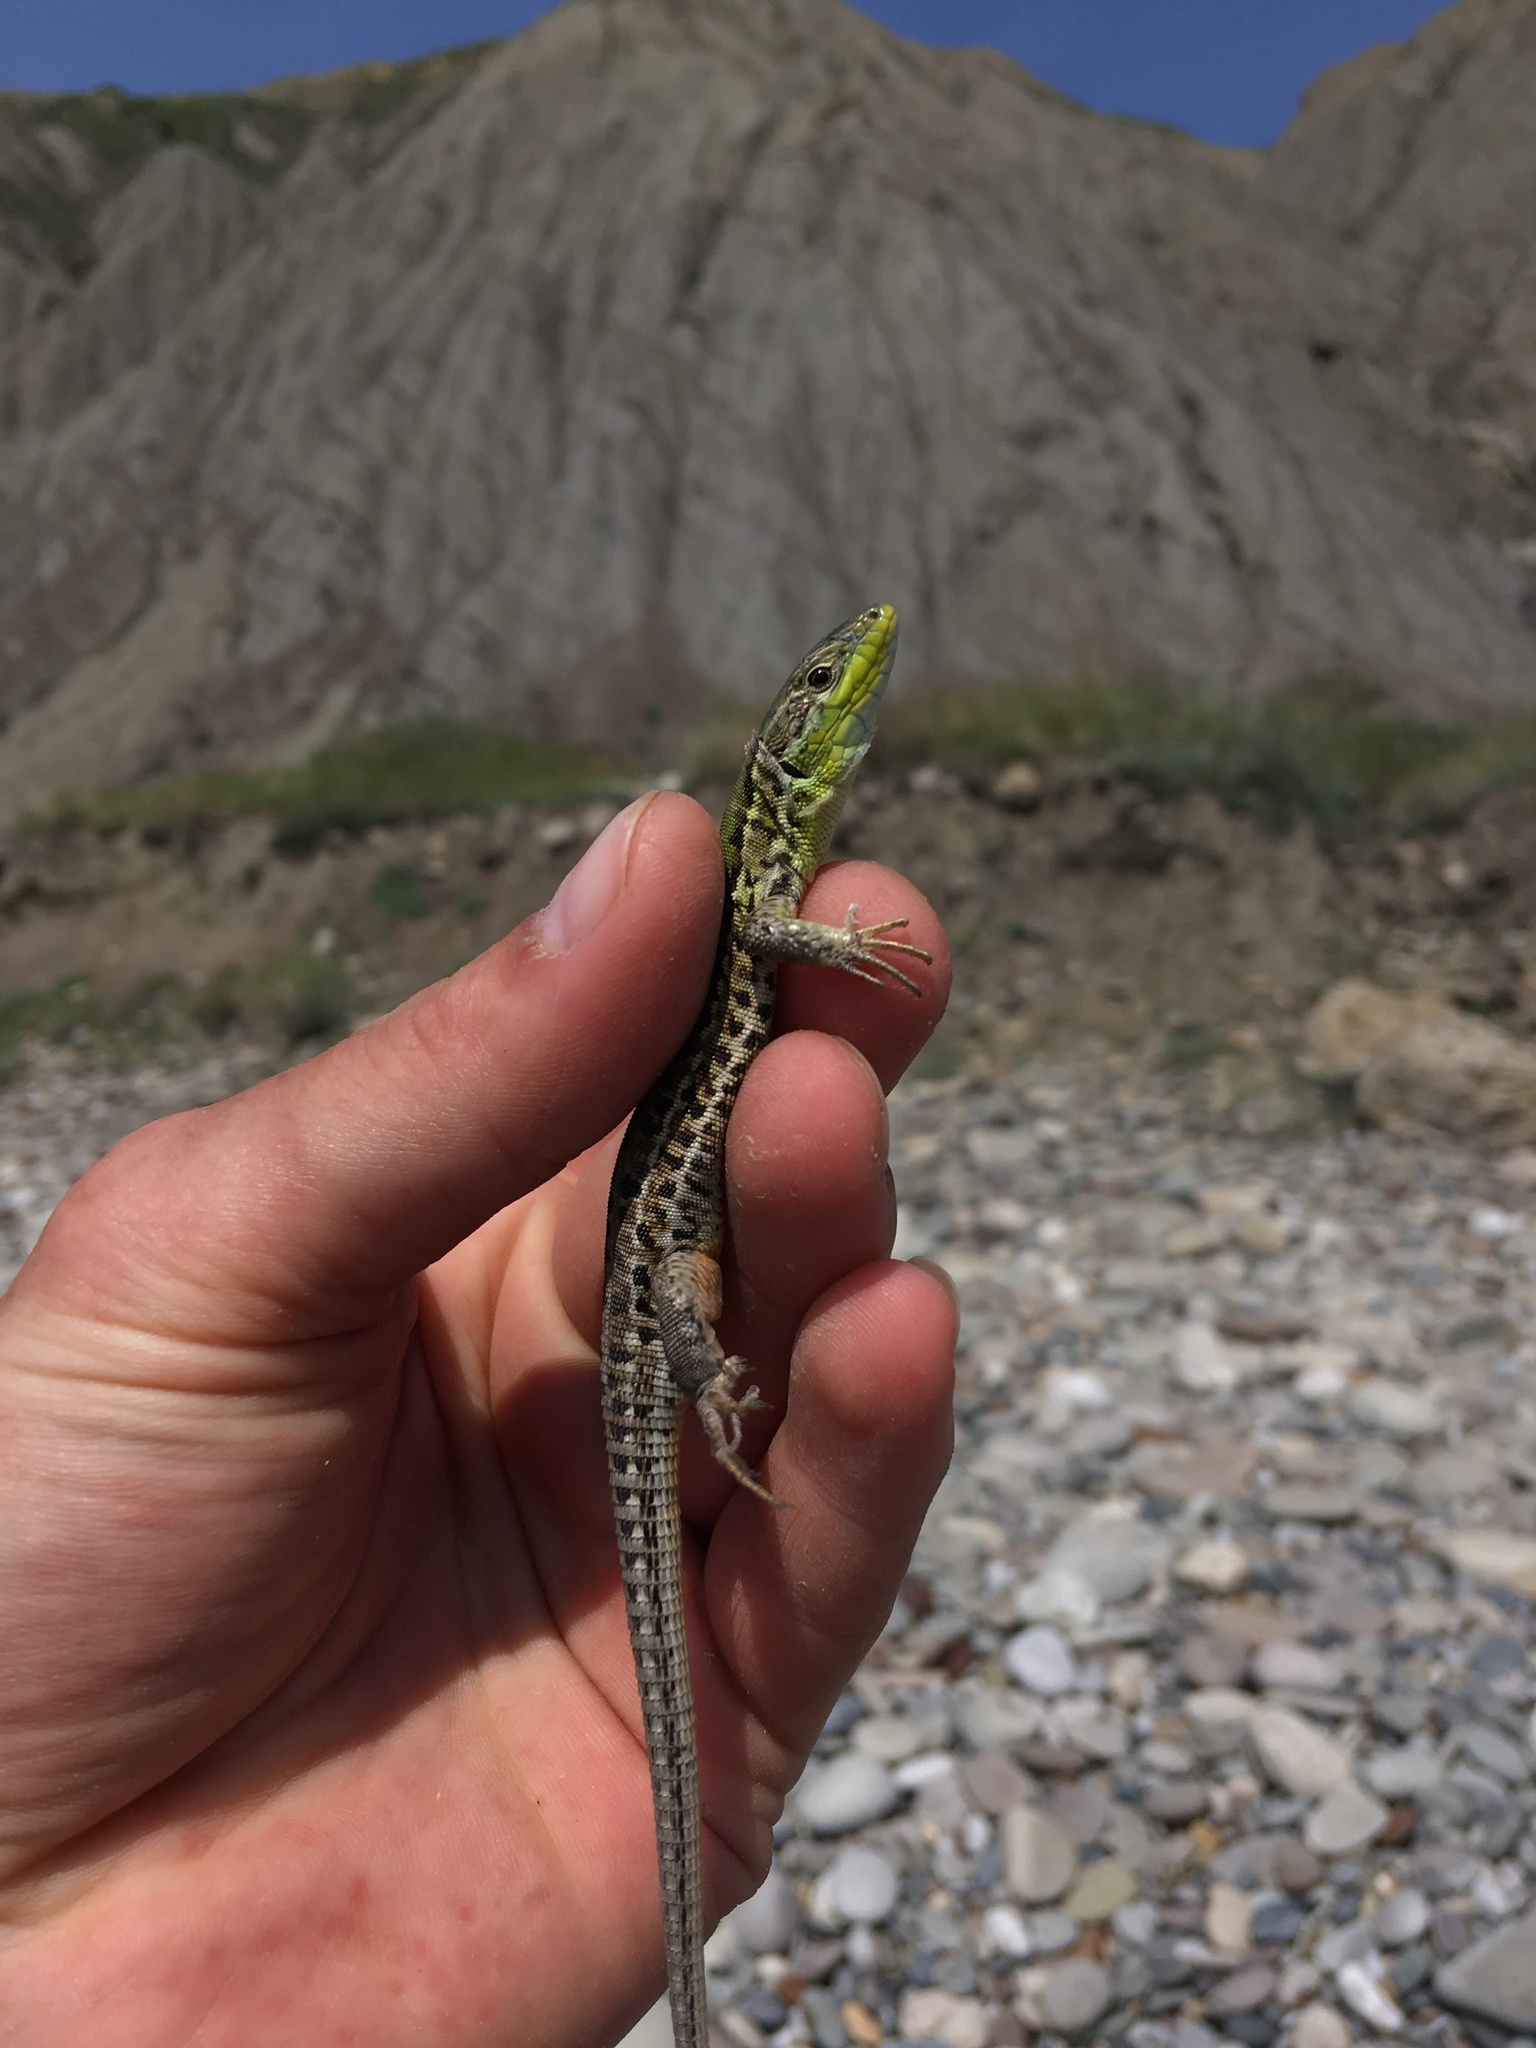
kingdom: Animalia
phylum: Chordata
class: Squamata
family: Lacertidae
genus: Podarcis
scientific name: Podarcis tauricus
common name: Balkan wall lizard
